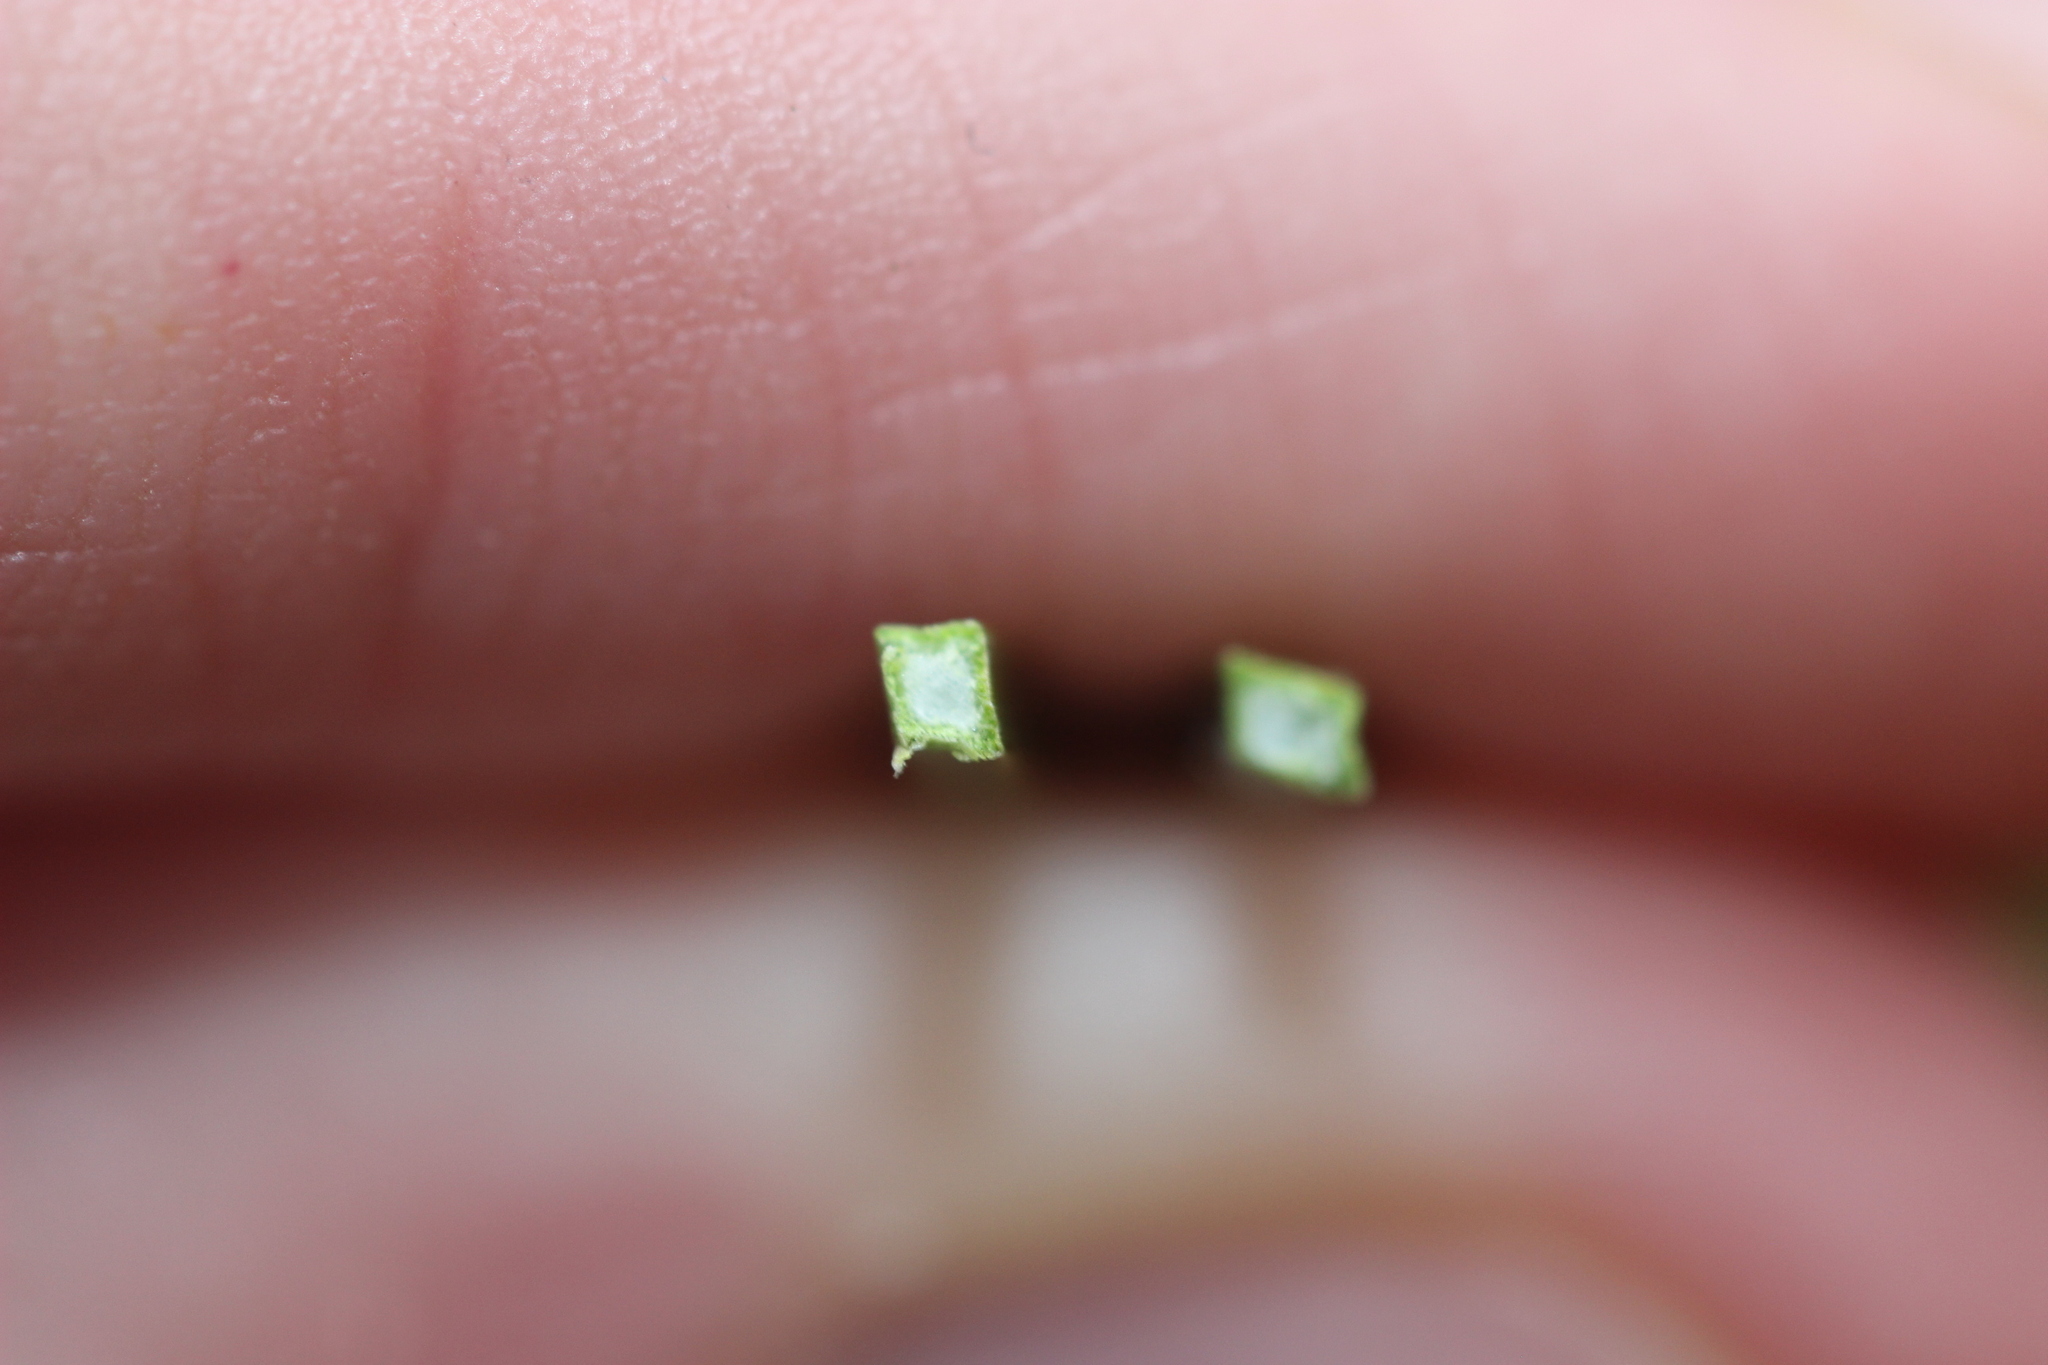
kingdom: Plantae
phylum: Tracheophyta
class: Liliopsida
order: Poales
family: Cyperaceae
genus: Lepidosperma
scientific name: Lepidosperma australe
